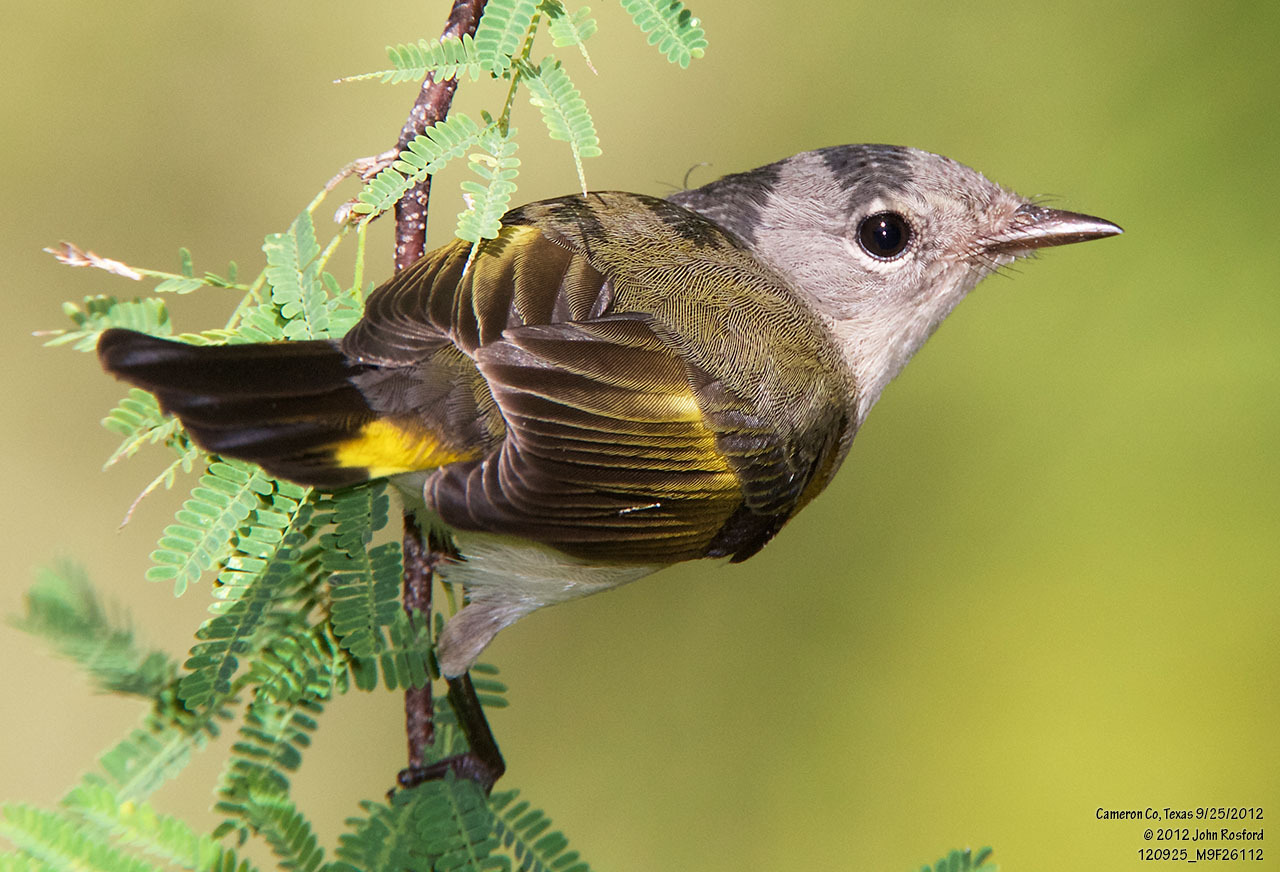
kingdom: Animalia
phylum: Chordata
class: Aves
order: Passeriformes
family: Parulidae
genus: Setophaga
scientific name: Setophaga ruticilla
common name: American redstart
